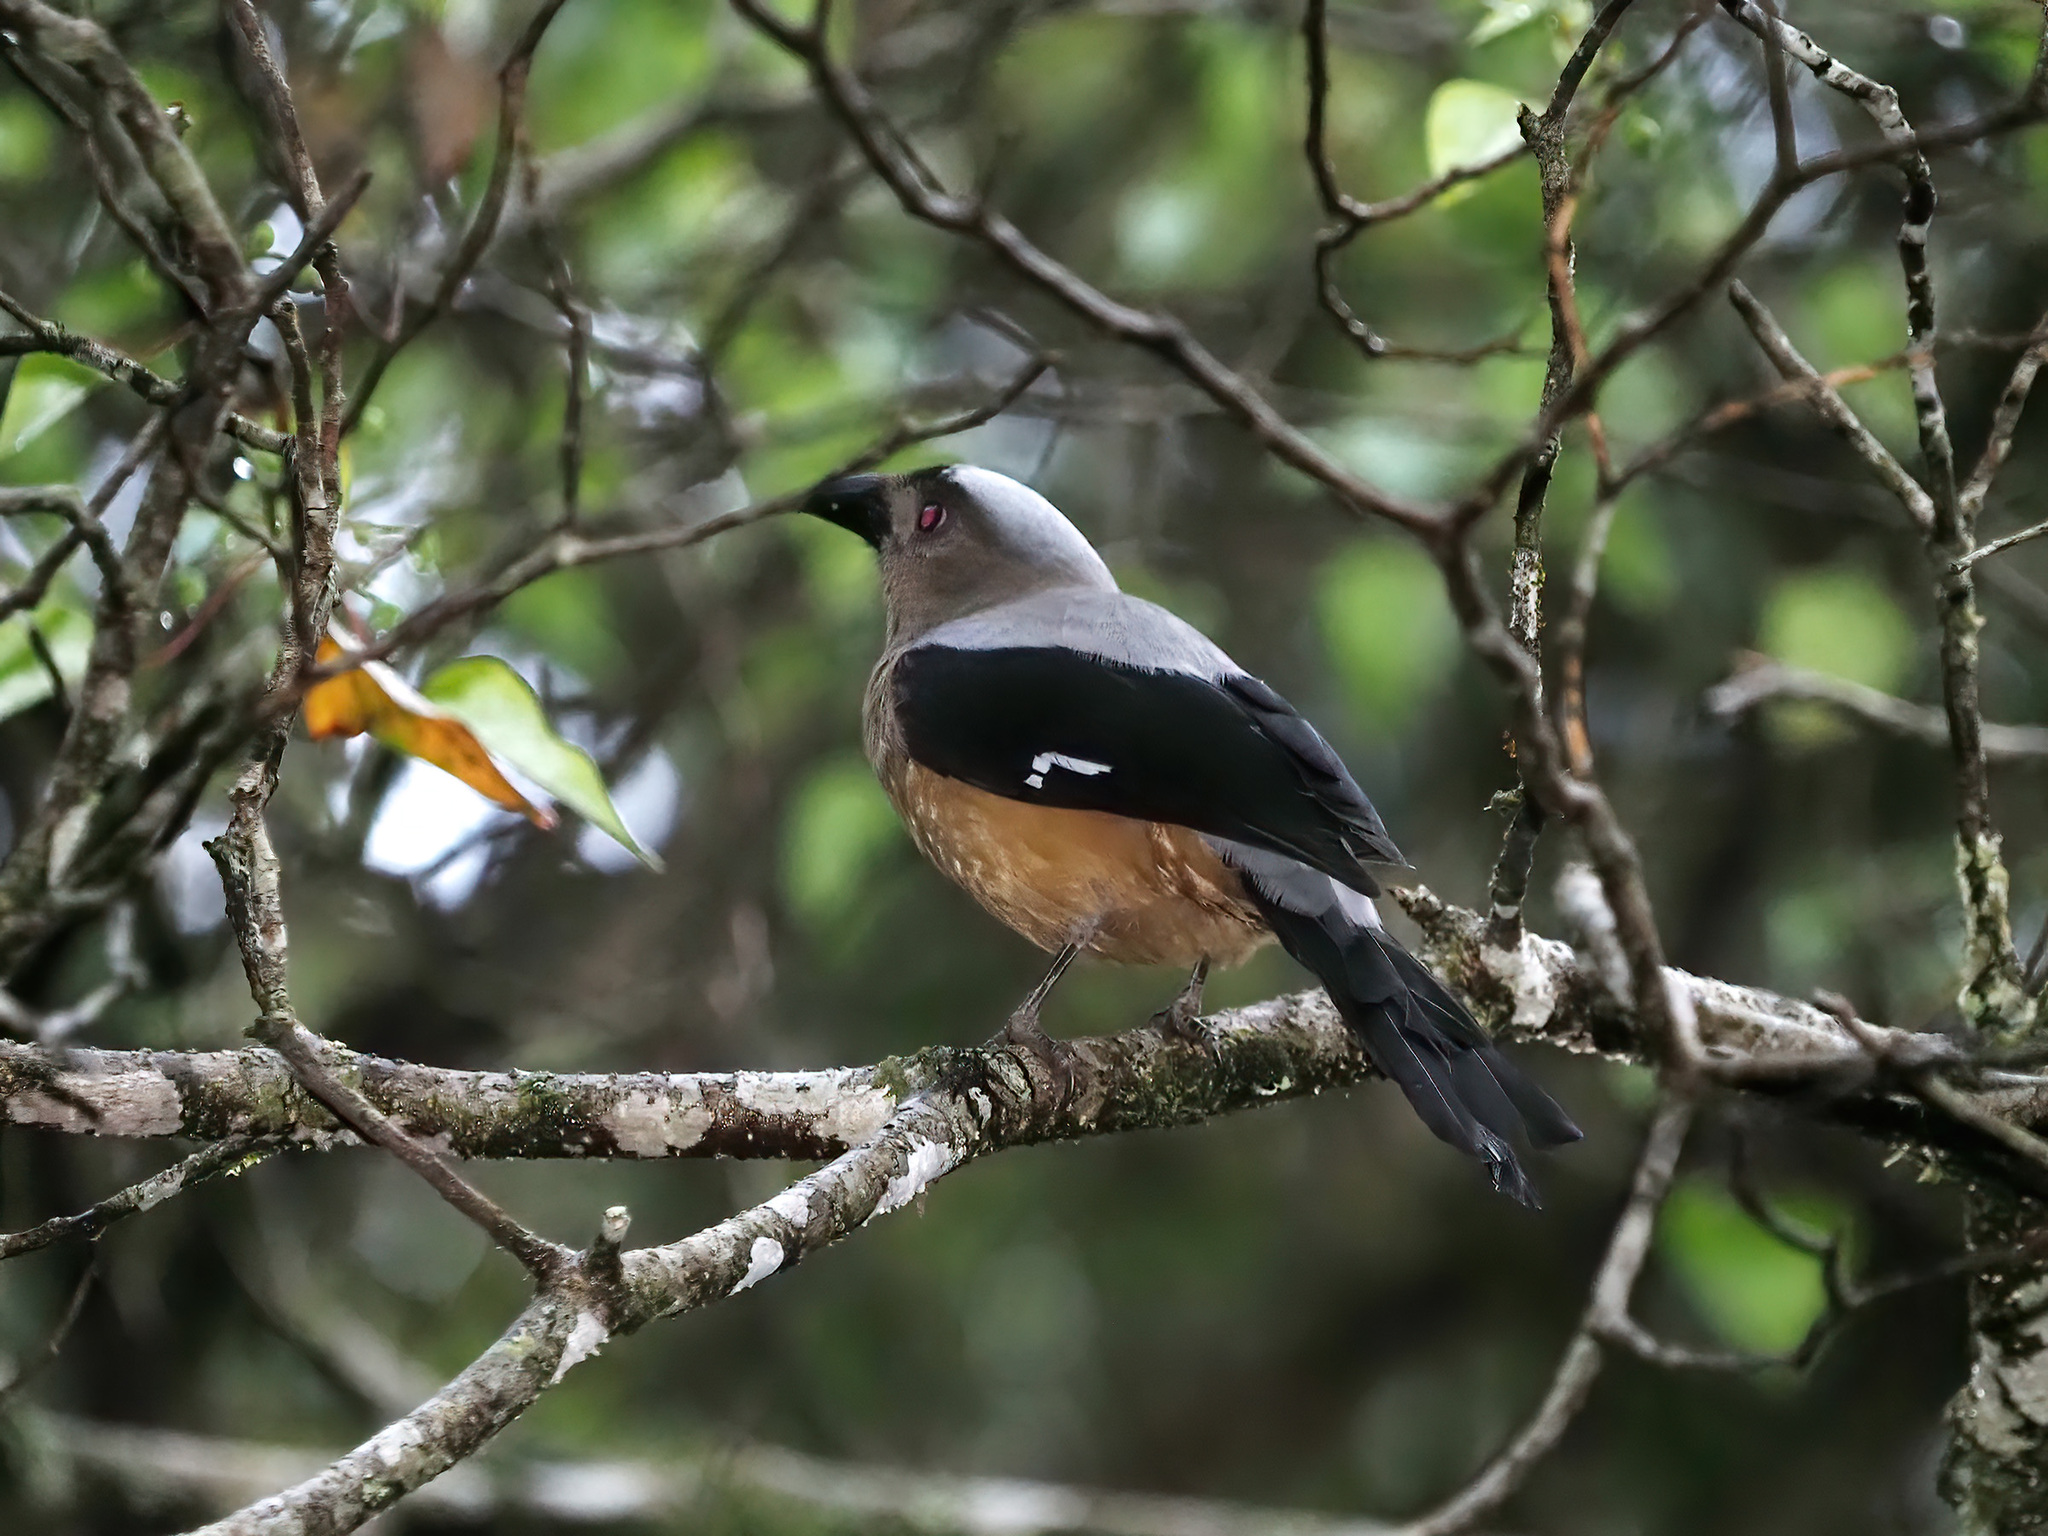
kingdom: Animalia
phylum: Chordata
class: Aves
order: Passeriformes
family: Corvidae
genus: Dendrocitta
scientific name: Dendrocitta cinerascens
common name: Bornean treepie
